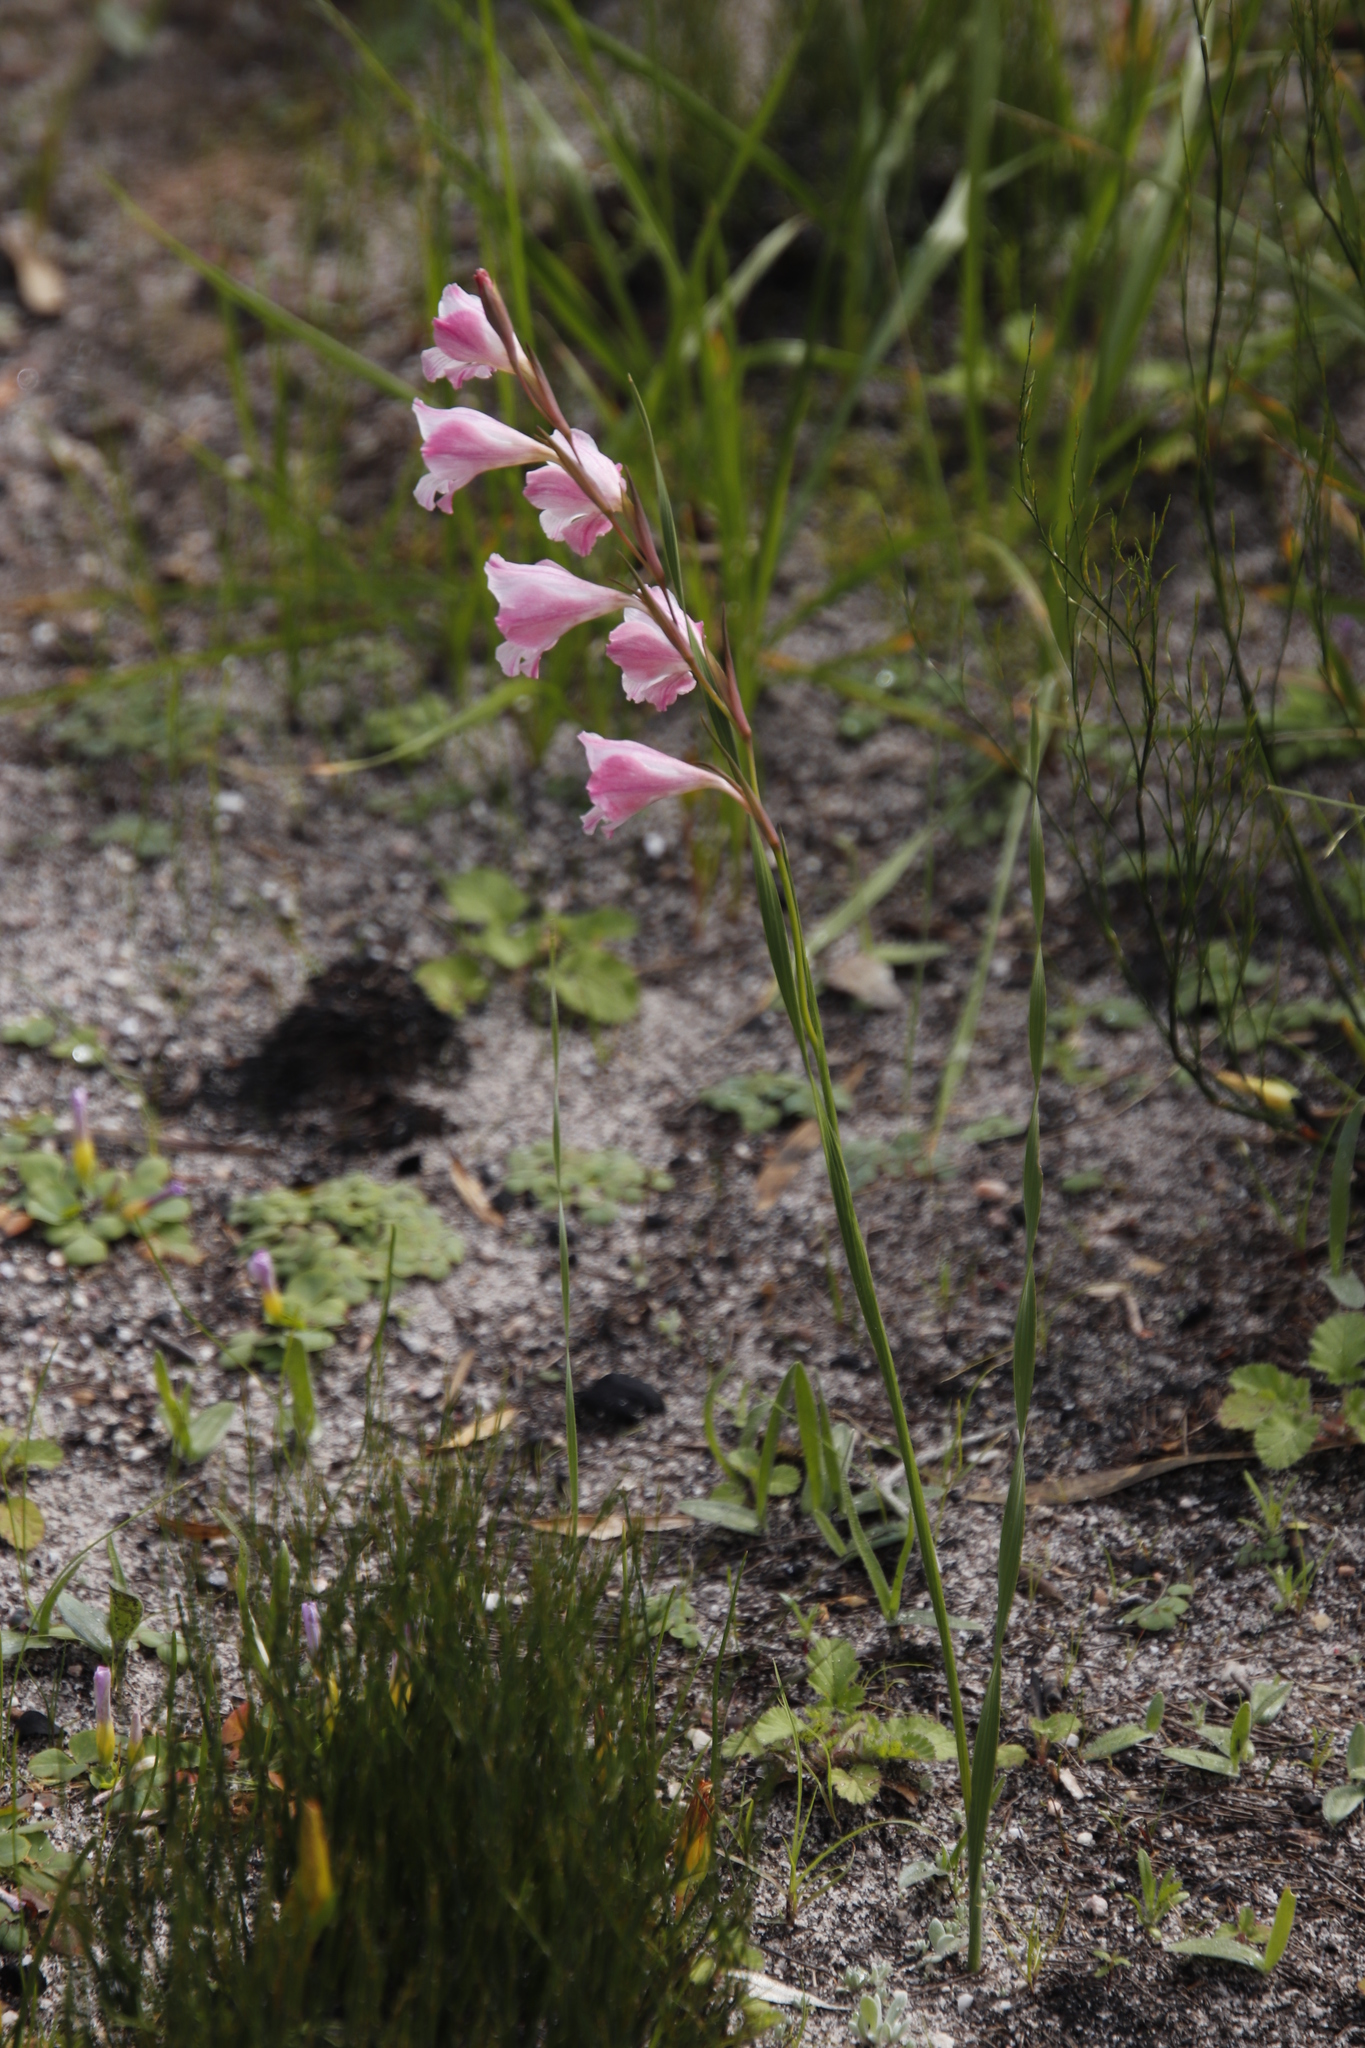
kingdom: Plantae
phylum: Tracheophyta
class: Liliopsida
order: Asparagales
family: Iridaceae
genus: Gladiolus
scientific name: Gladiolus hirsutus
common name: Small pink afrikaner
